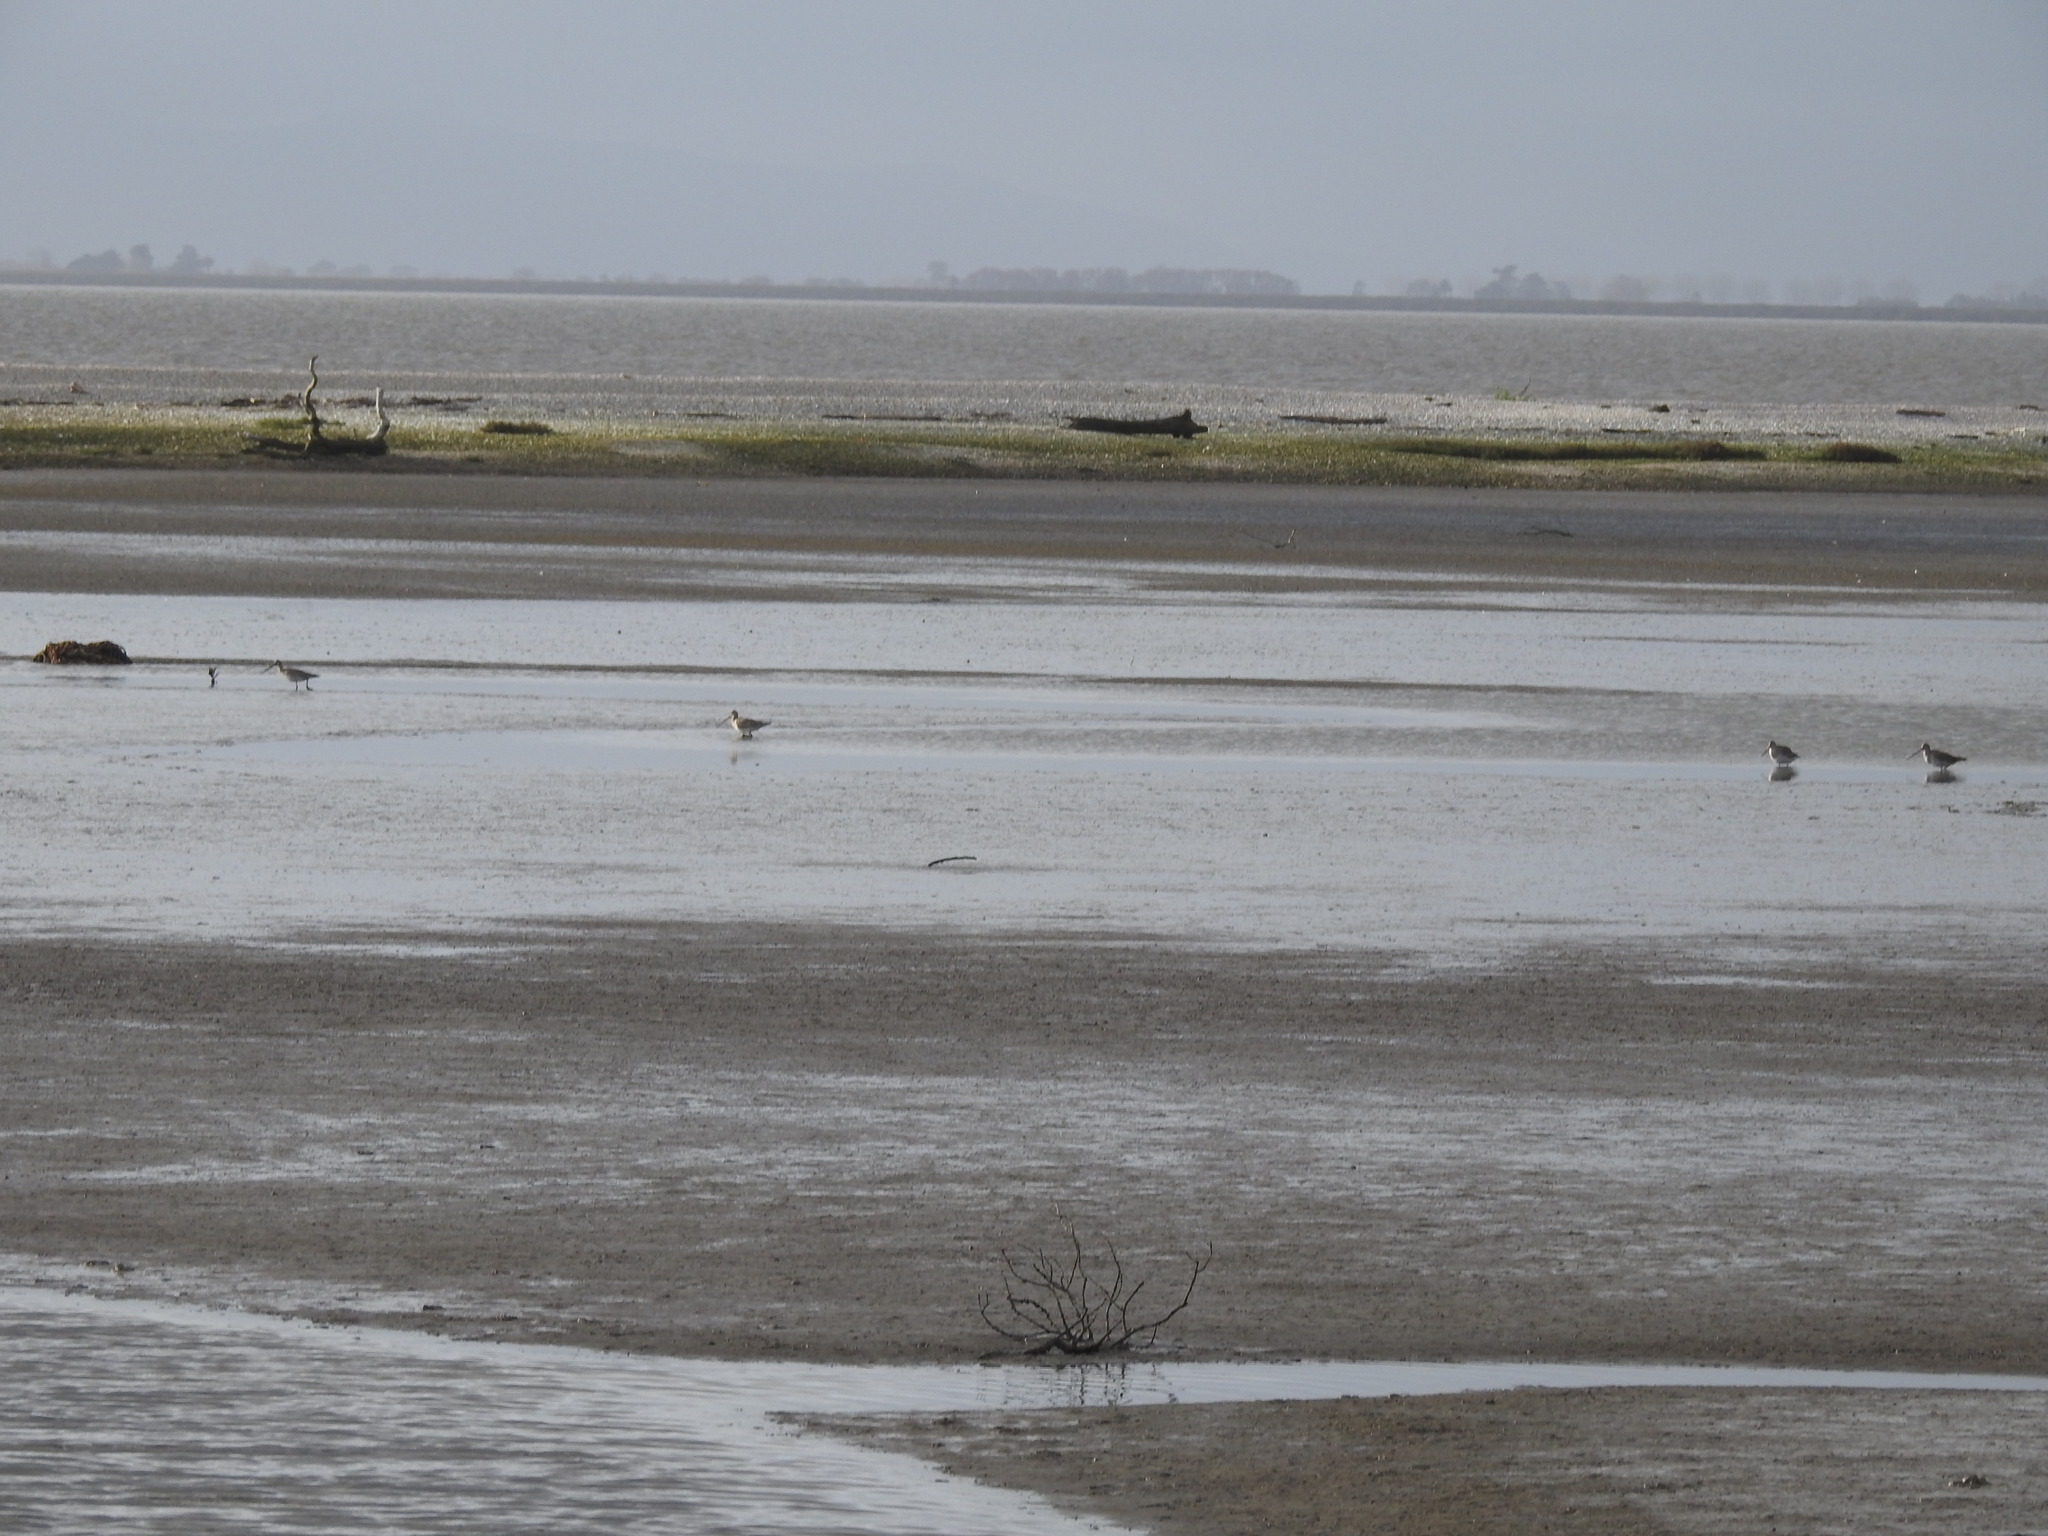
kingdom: Animalia
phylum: Chordata
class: Aves
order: Charadriiformes
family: Scolopacidae
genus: Limosa
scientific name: Limosa lapponica
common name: Bar-tailed godwit
